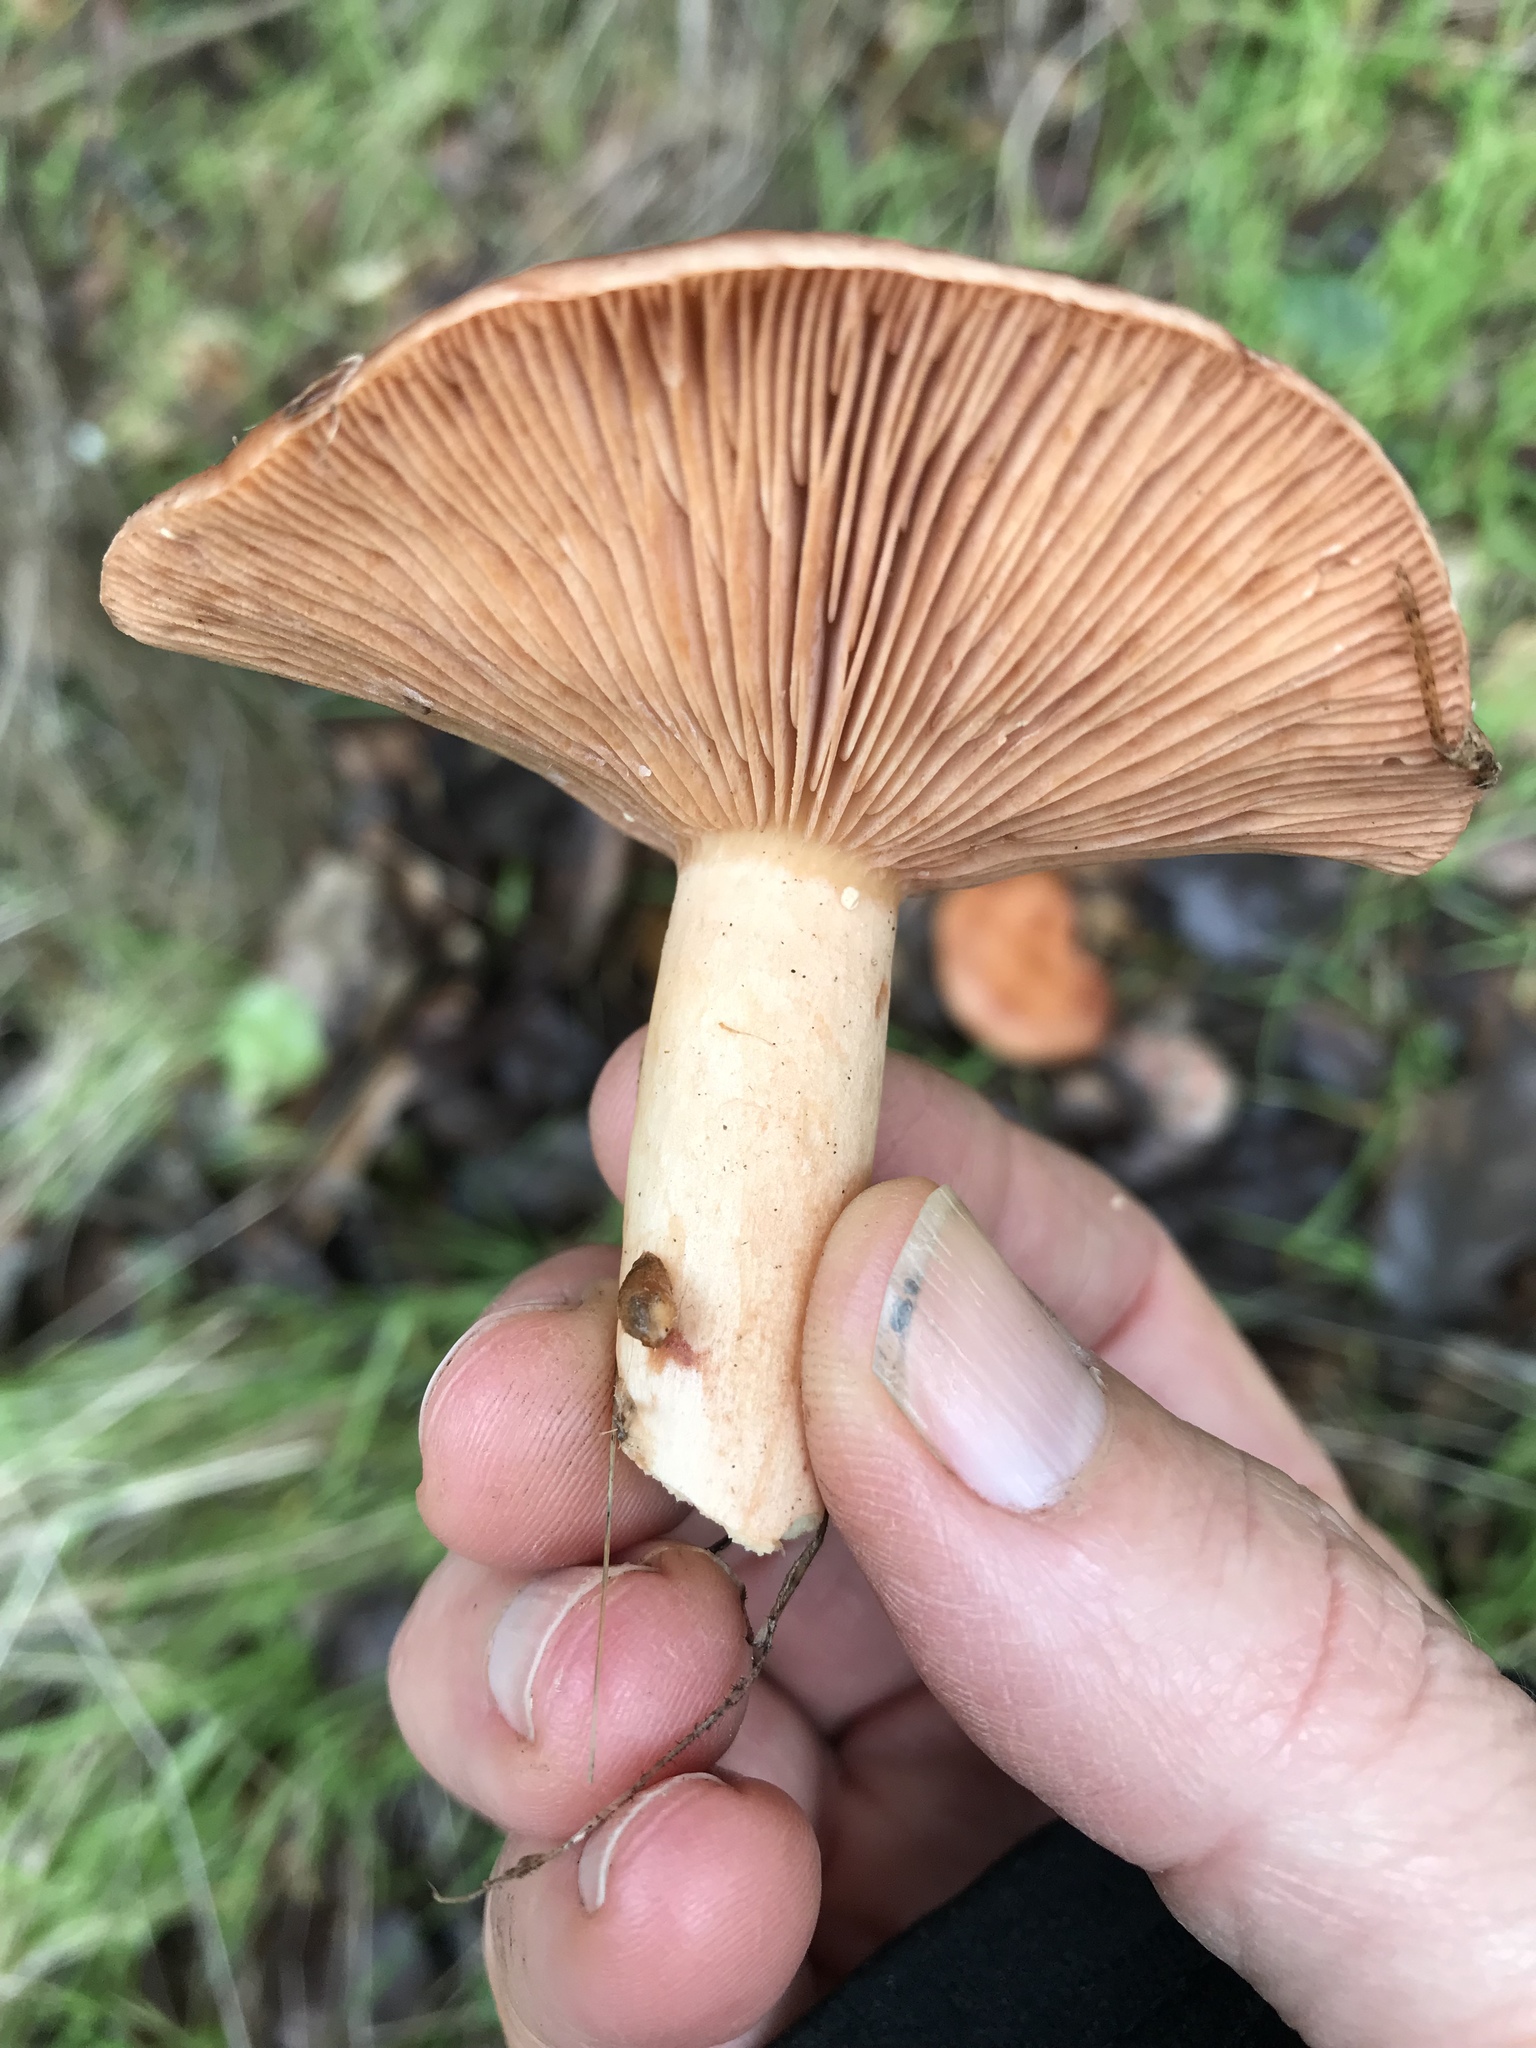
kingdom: Fungi
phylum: Basidiomycota
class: Agaricomycetes
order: Russulales
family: Russulaceae
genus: Lactarius
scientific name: Lactarius xanthogalactus
